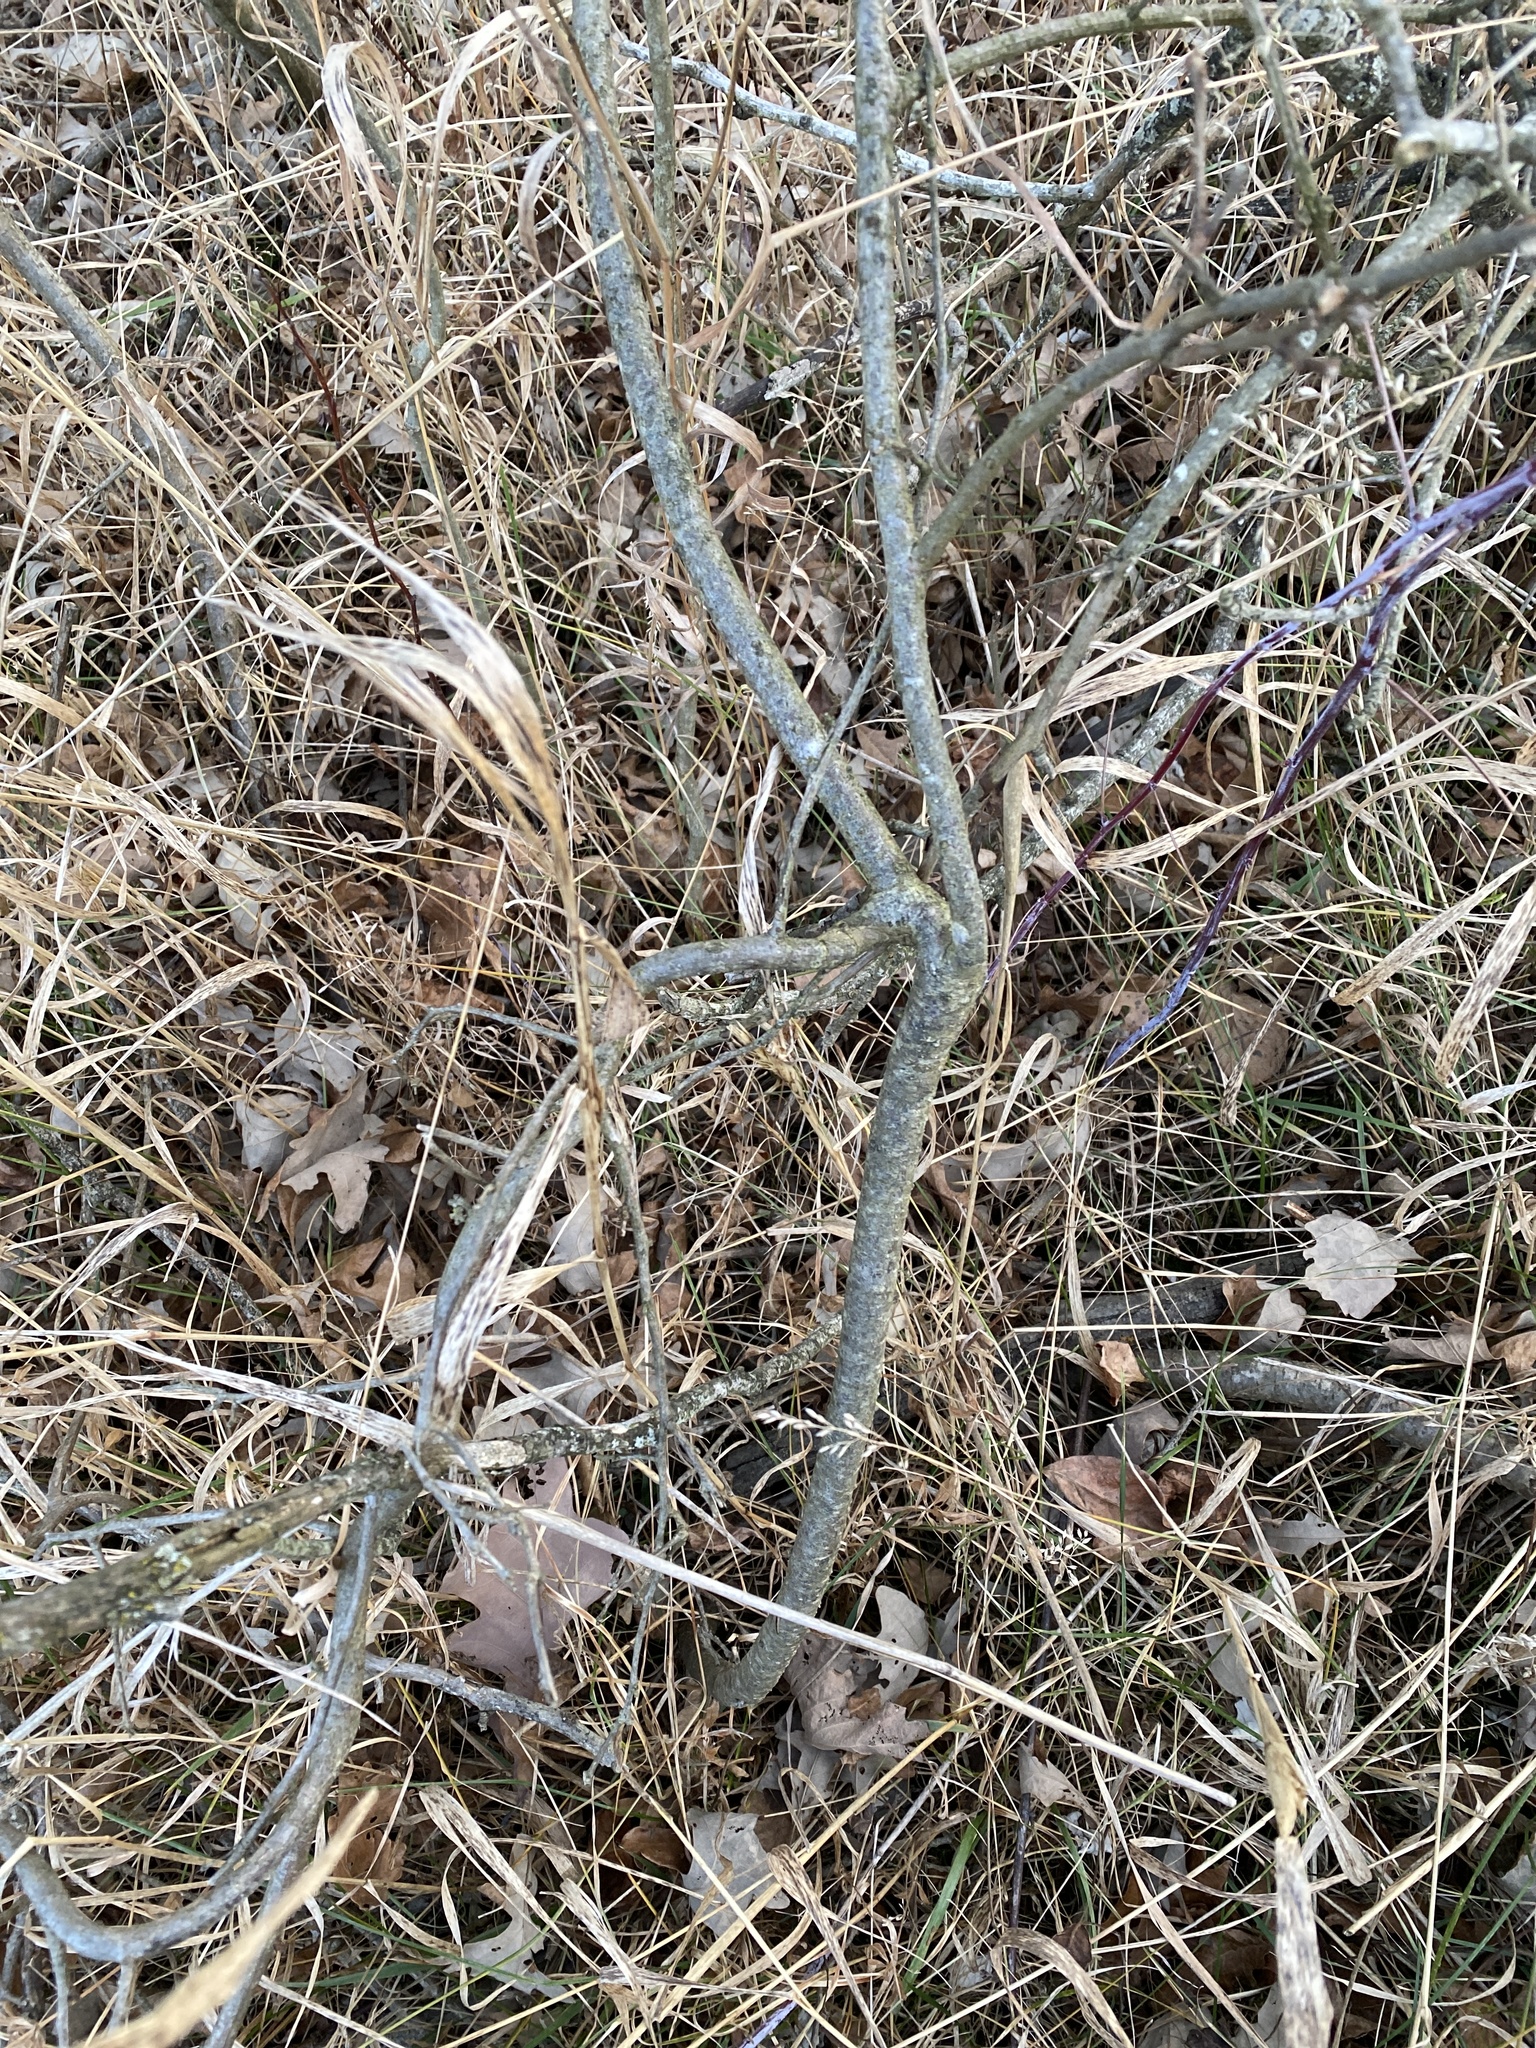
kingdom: Plantae
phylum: Tracheophyta
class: Magnoliopsida
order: Celastrales
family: Celastraceae
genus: Celastrus
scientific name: Celastrus orbiculatus
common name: Oriental bittersweet
